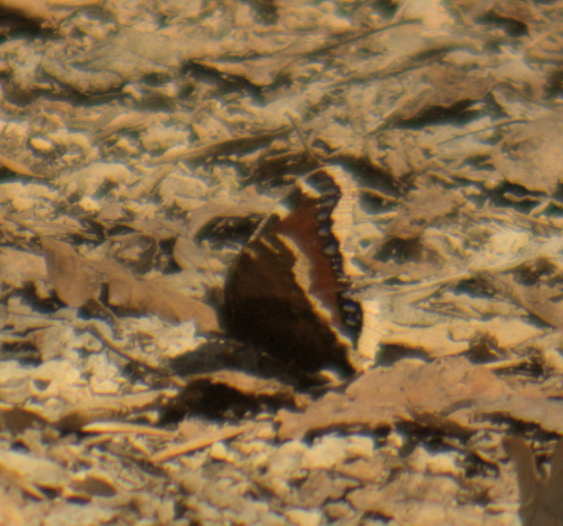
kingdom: Animalia
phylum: Arthropoda
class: Insecta
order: Lepidoptera
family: Nymphalidae
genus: Nymphalis
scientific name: Nymphalis antiopa
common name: Camberwell beauty
